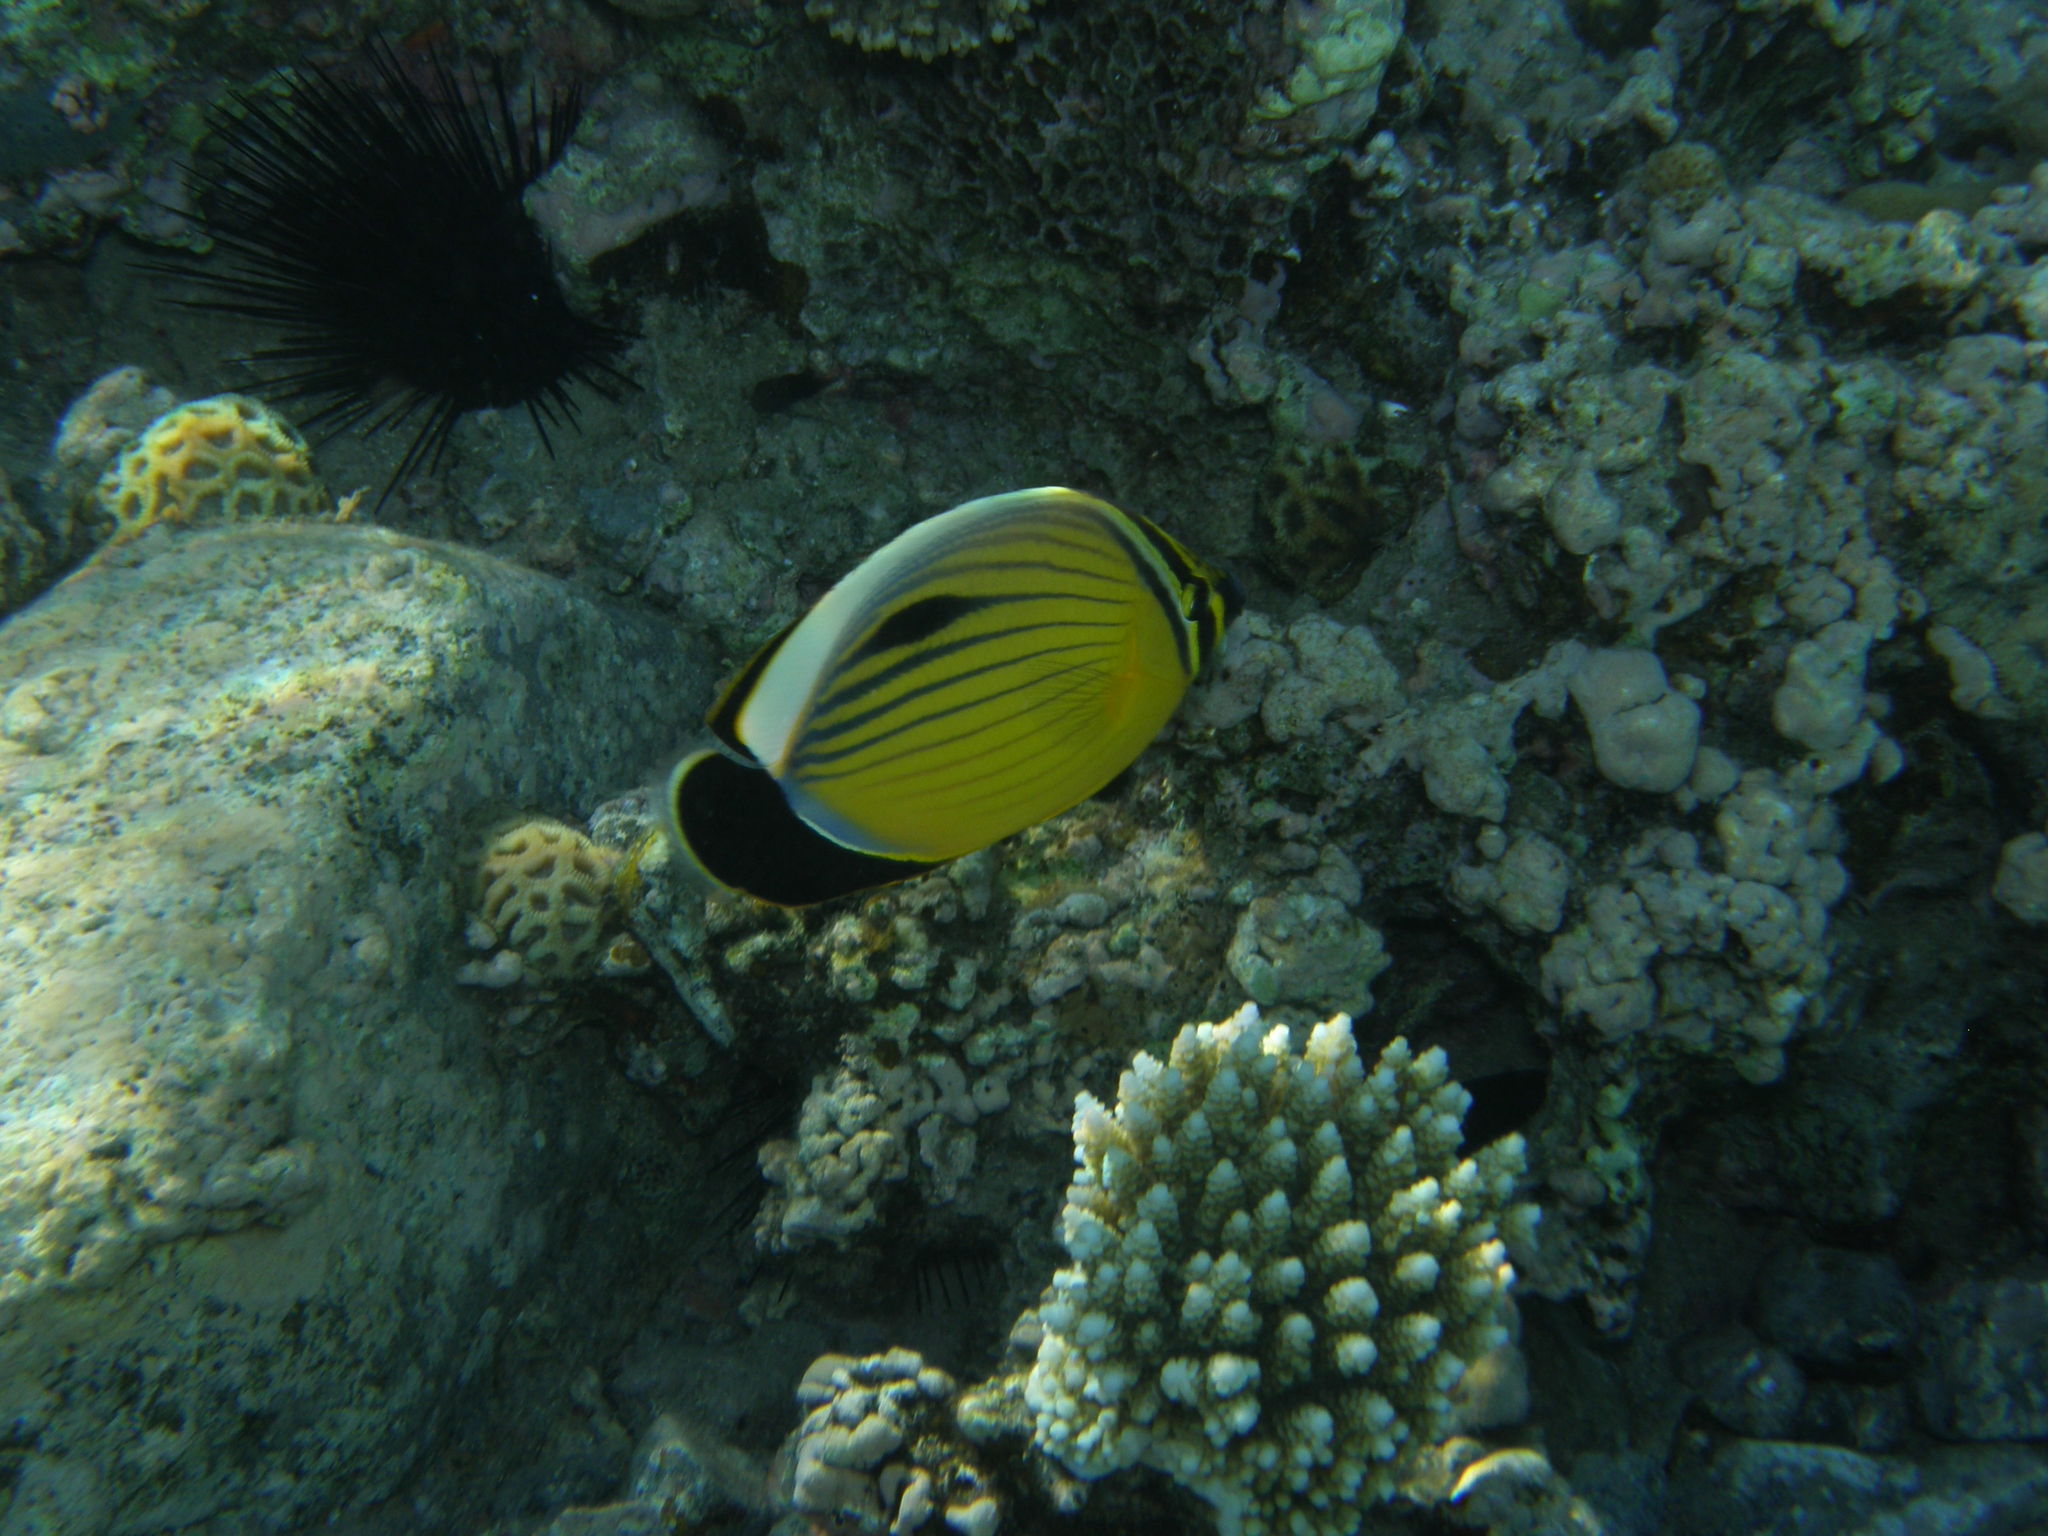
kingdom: Animalia
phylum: Chordata
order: Perciformes
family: Chaetodontidae
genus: Chaetodon
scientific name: Chaetodon austriacus
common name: Exquisite butterflyfish
